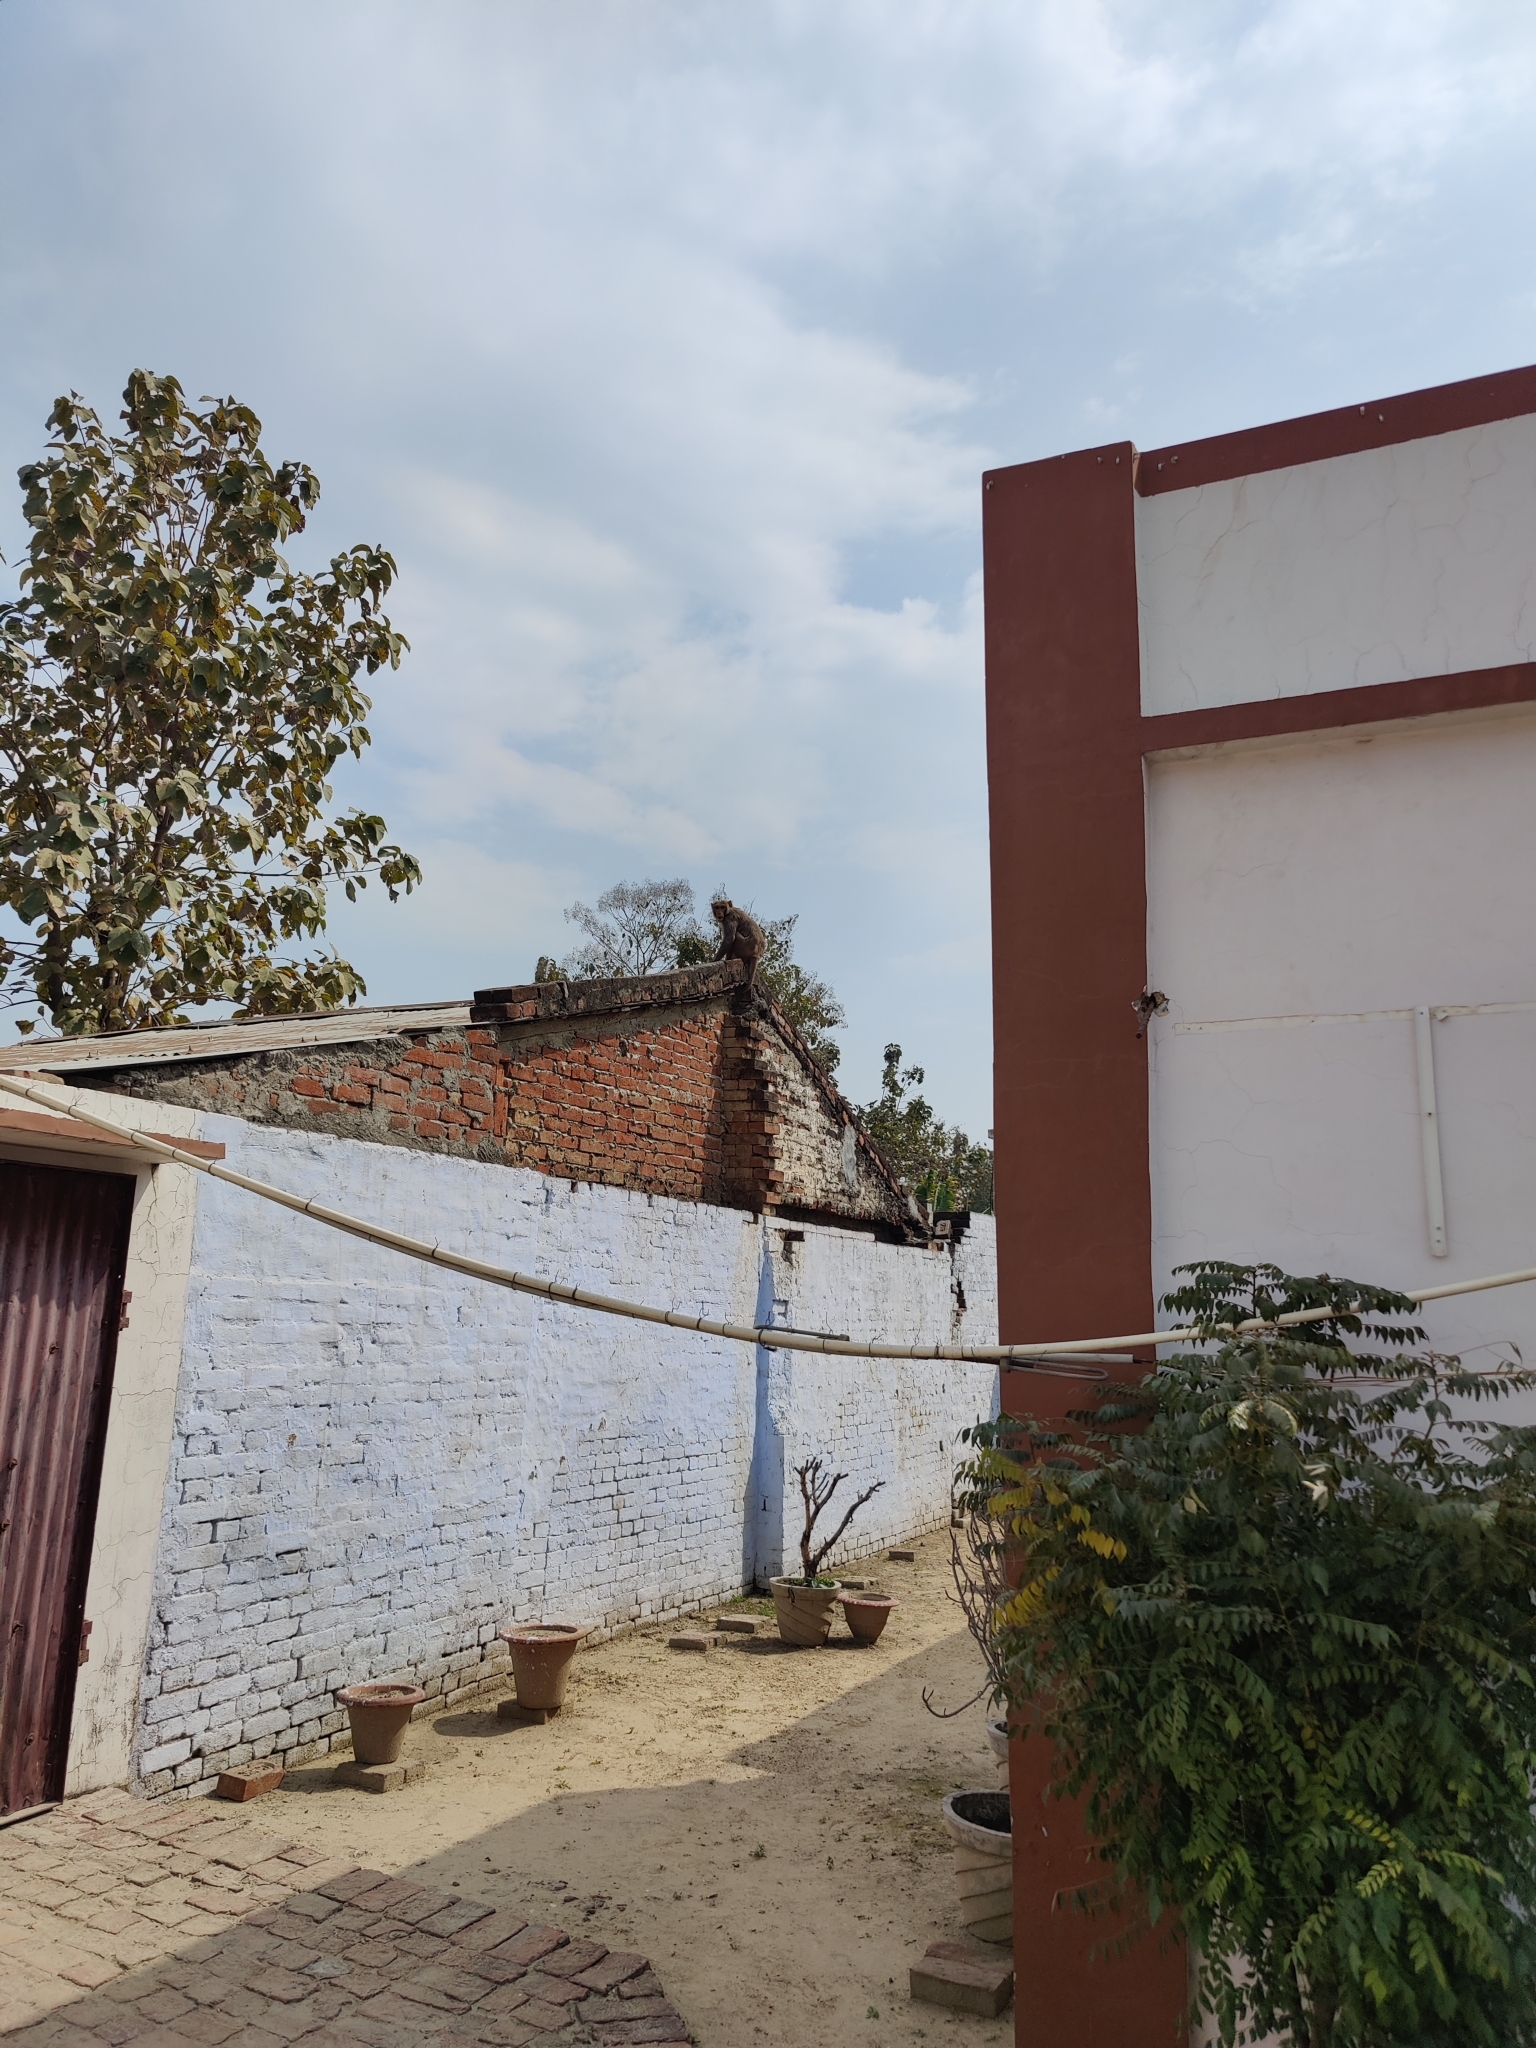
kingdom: Animalia
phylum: Chordata
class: Mammalia
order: Primates
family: Cercopithecidae
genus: Macaca
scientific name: Macaca mulatta
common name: Rhesus monkey
